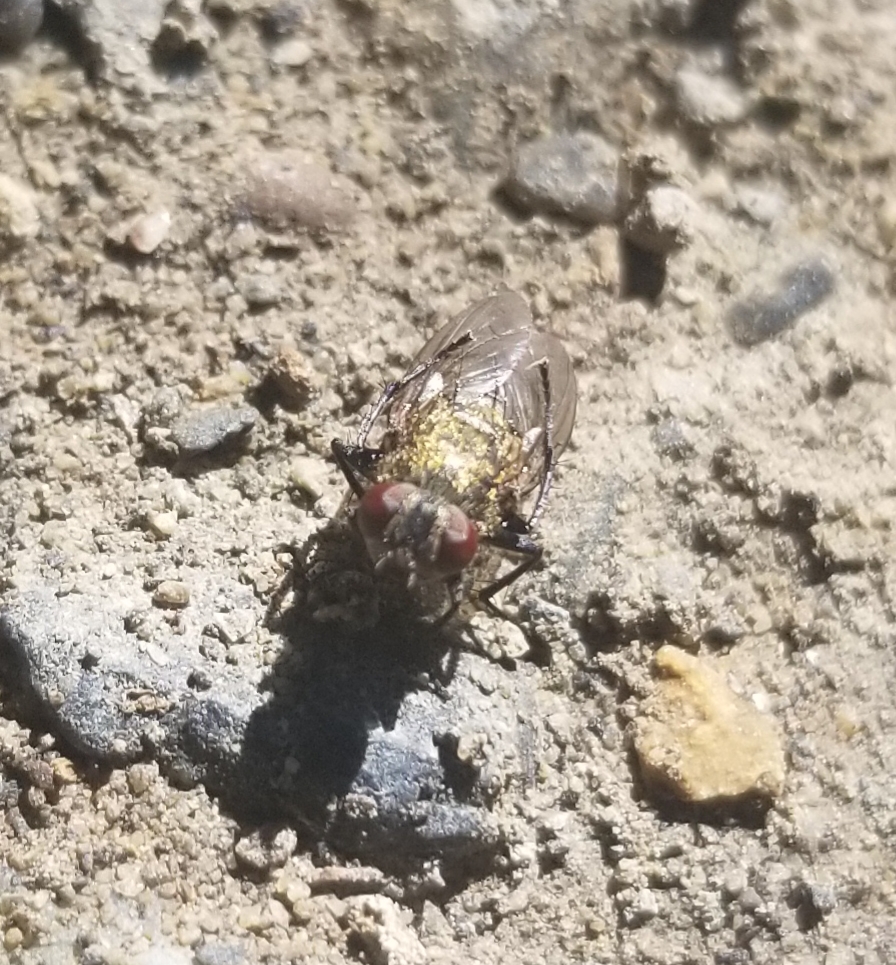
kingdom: Animalia
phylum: Arthropoda
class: Insecta
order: Diptera
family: Polleniidae
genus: Pollenia
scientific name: Pollenia
